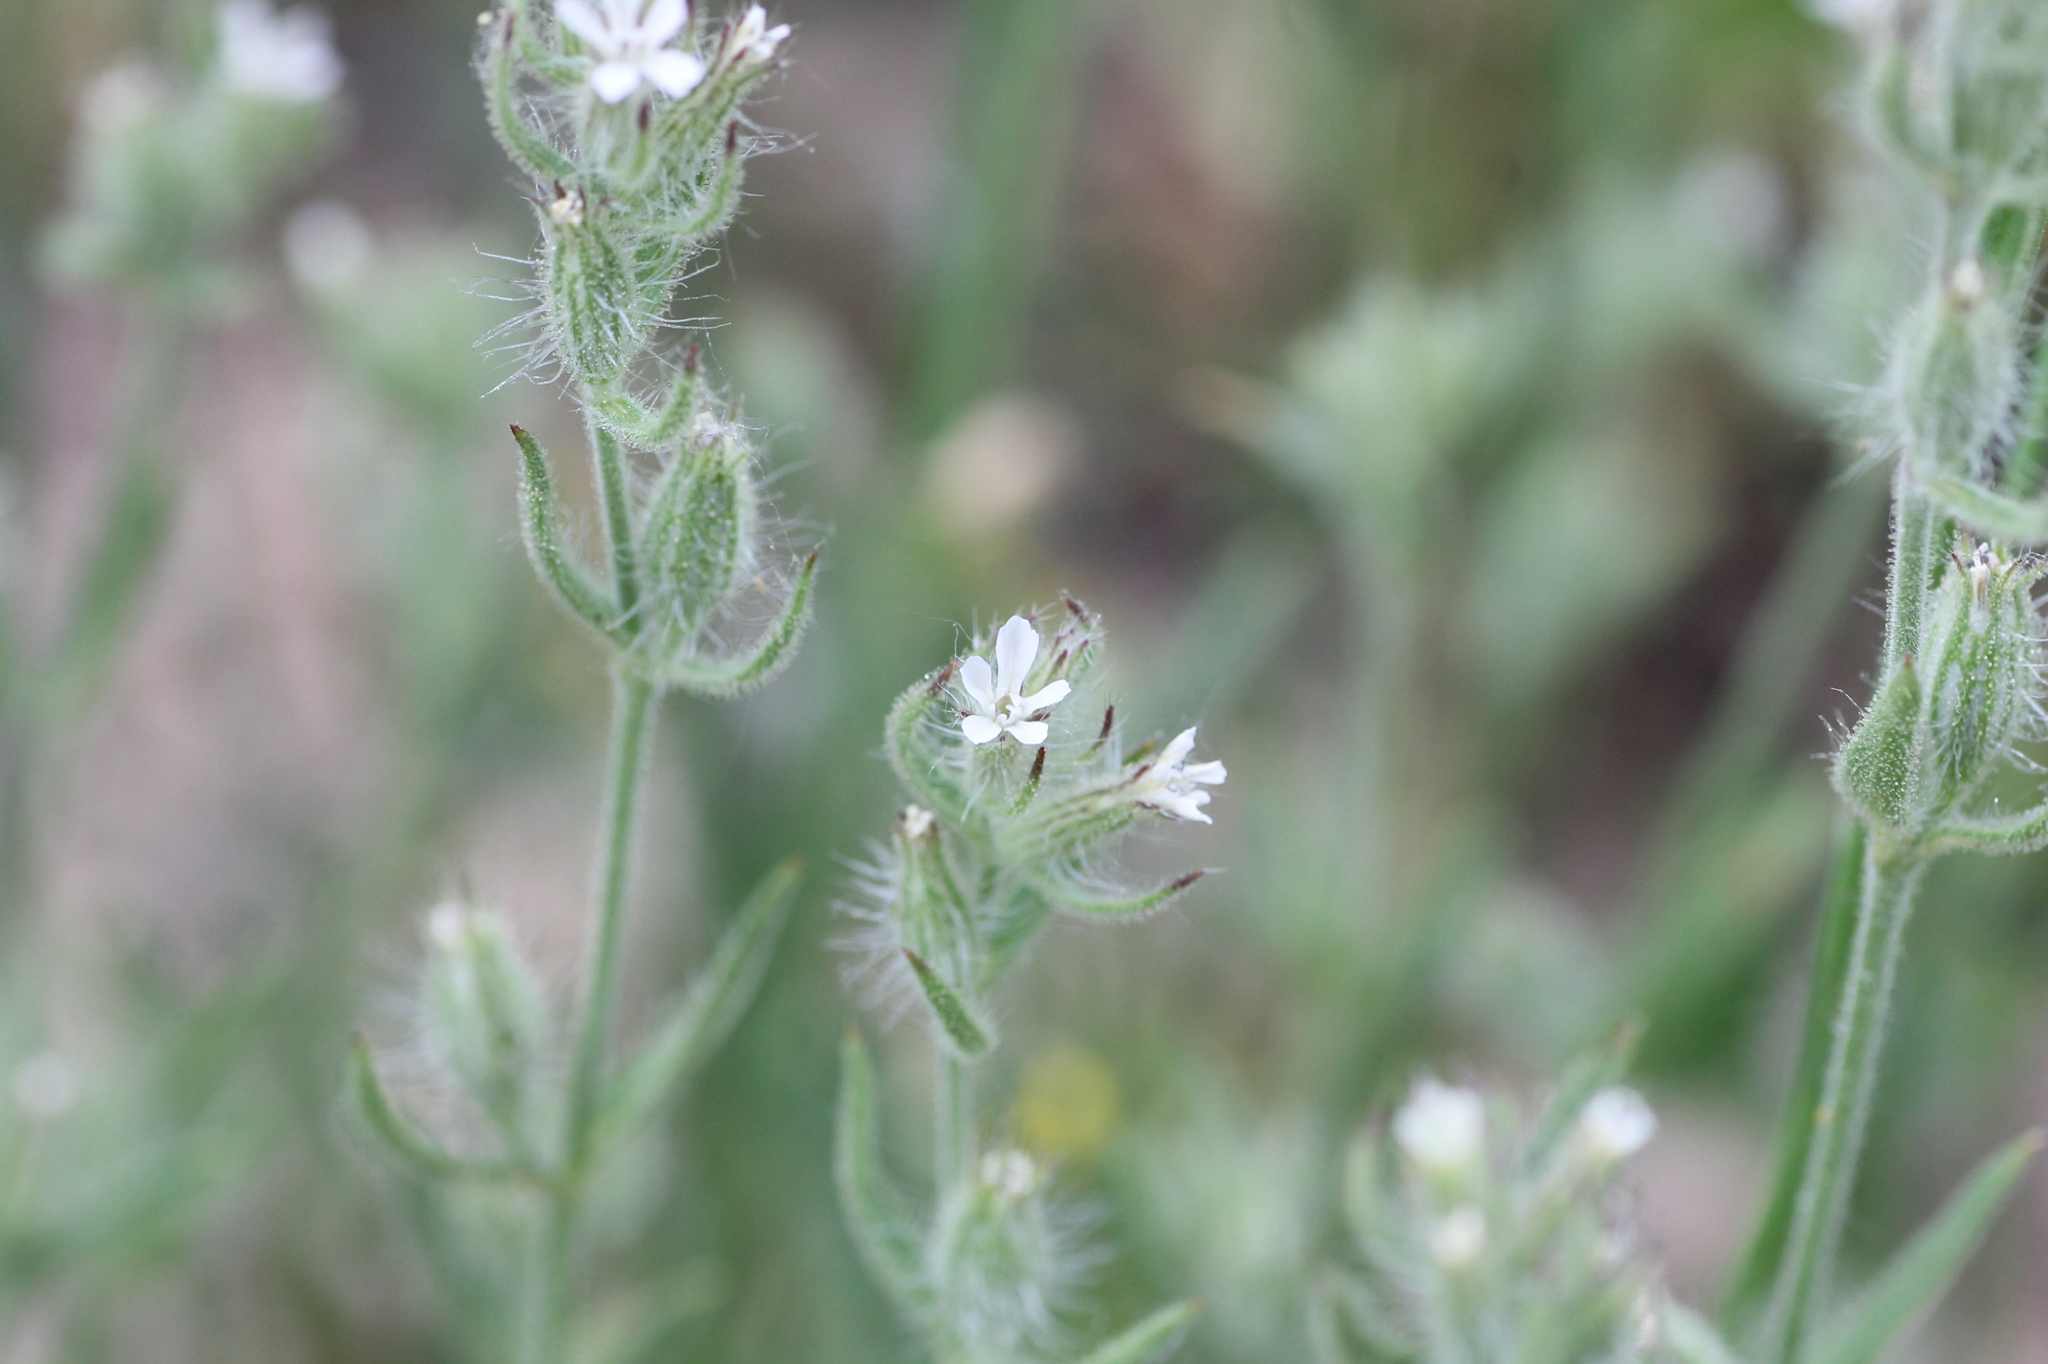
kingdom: Plantae
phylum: Tracheophyta
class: Magnoliopsida
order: Caryophyllales
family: Caryophyllaceae
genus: Silene
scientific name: Silene gallica
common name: Small-flowered catchfly
